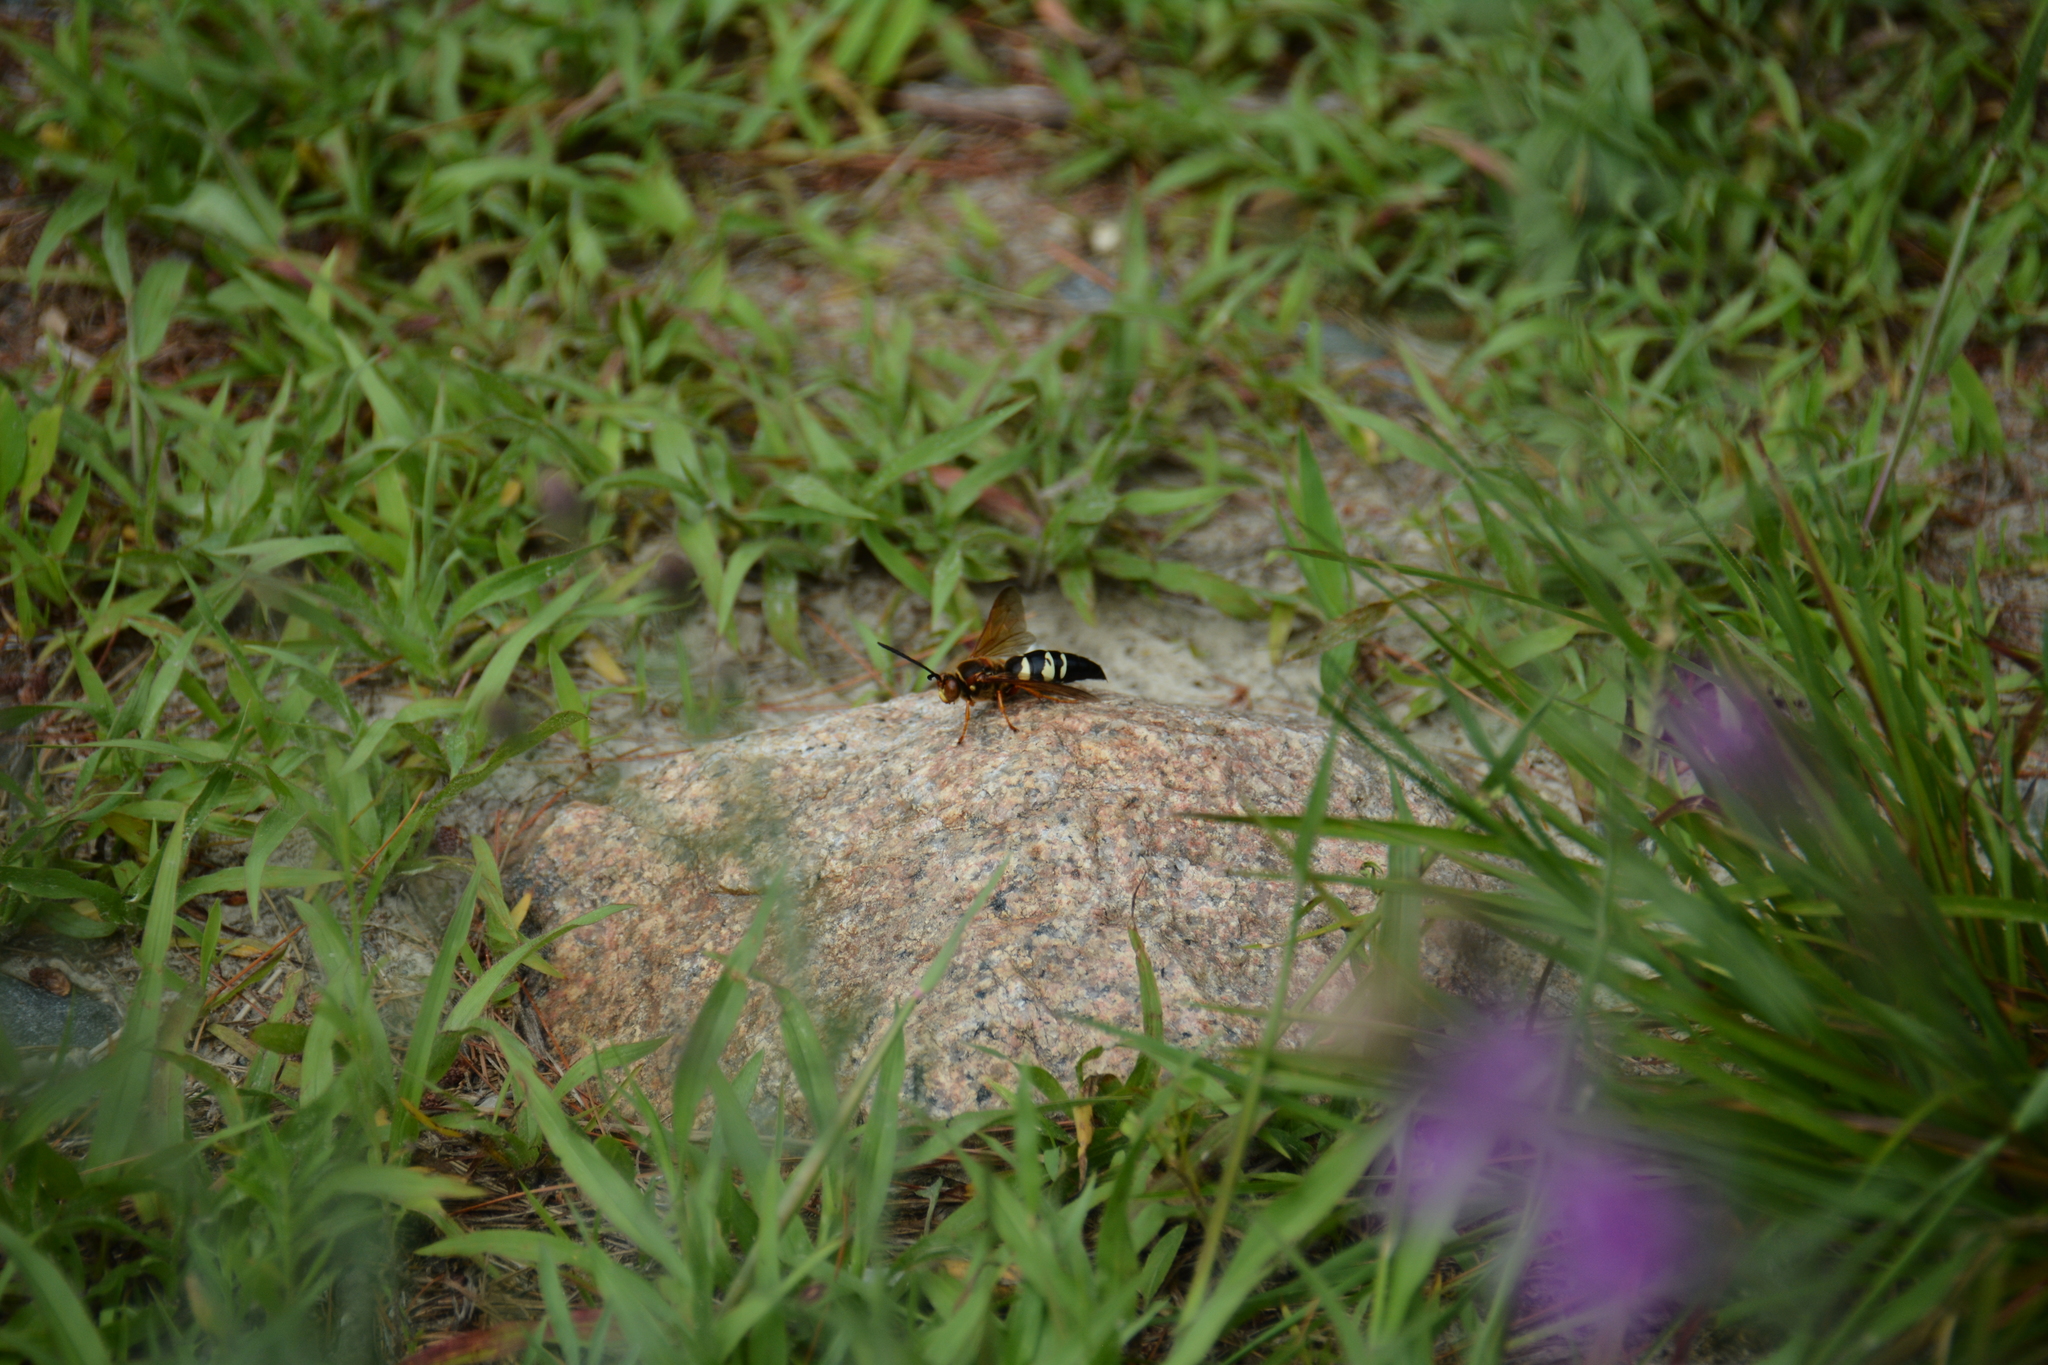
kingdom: Animalia
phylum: Arthropoda
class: Insecta
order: Hymenoptera
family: Crabronidae
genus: Sphecius
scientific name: Sphecius speciosus
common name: Cicada killer
